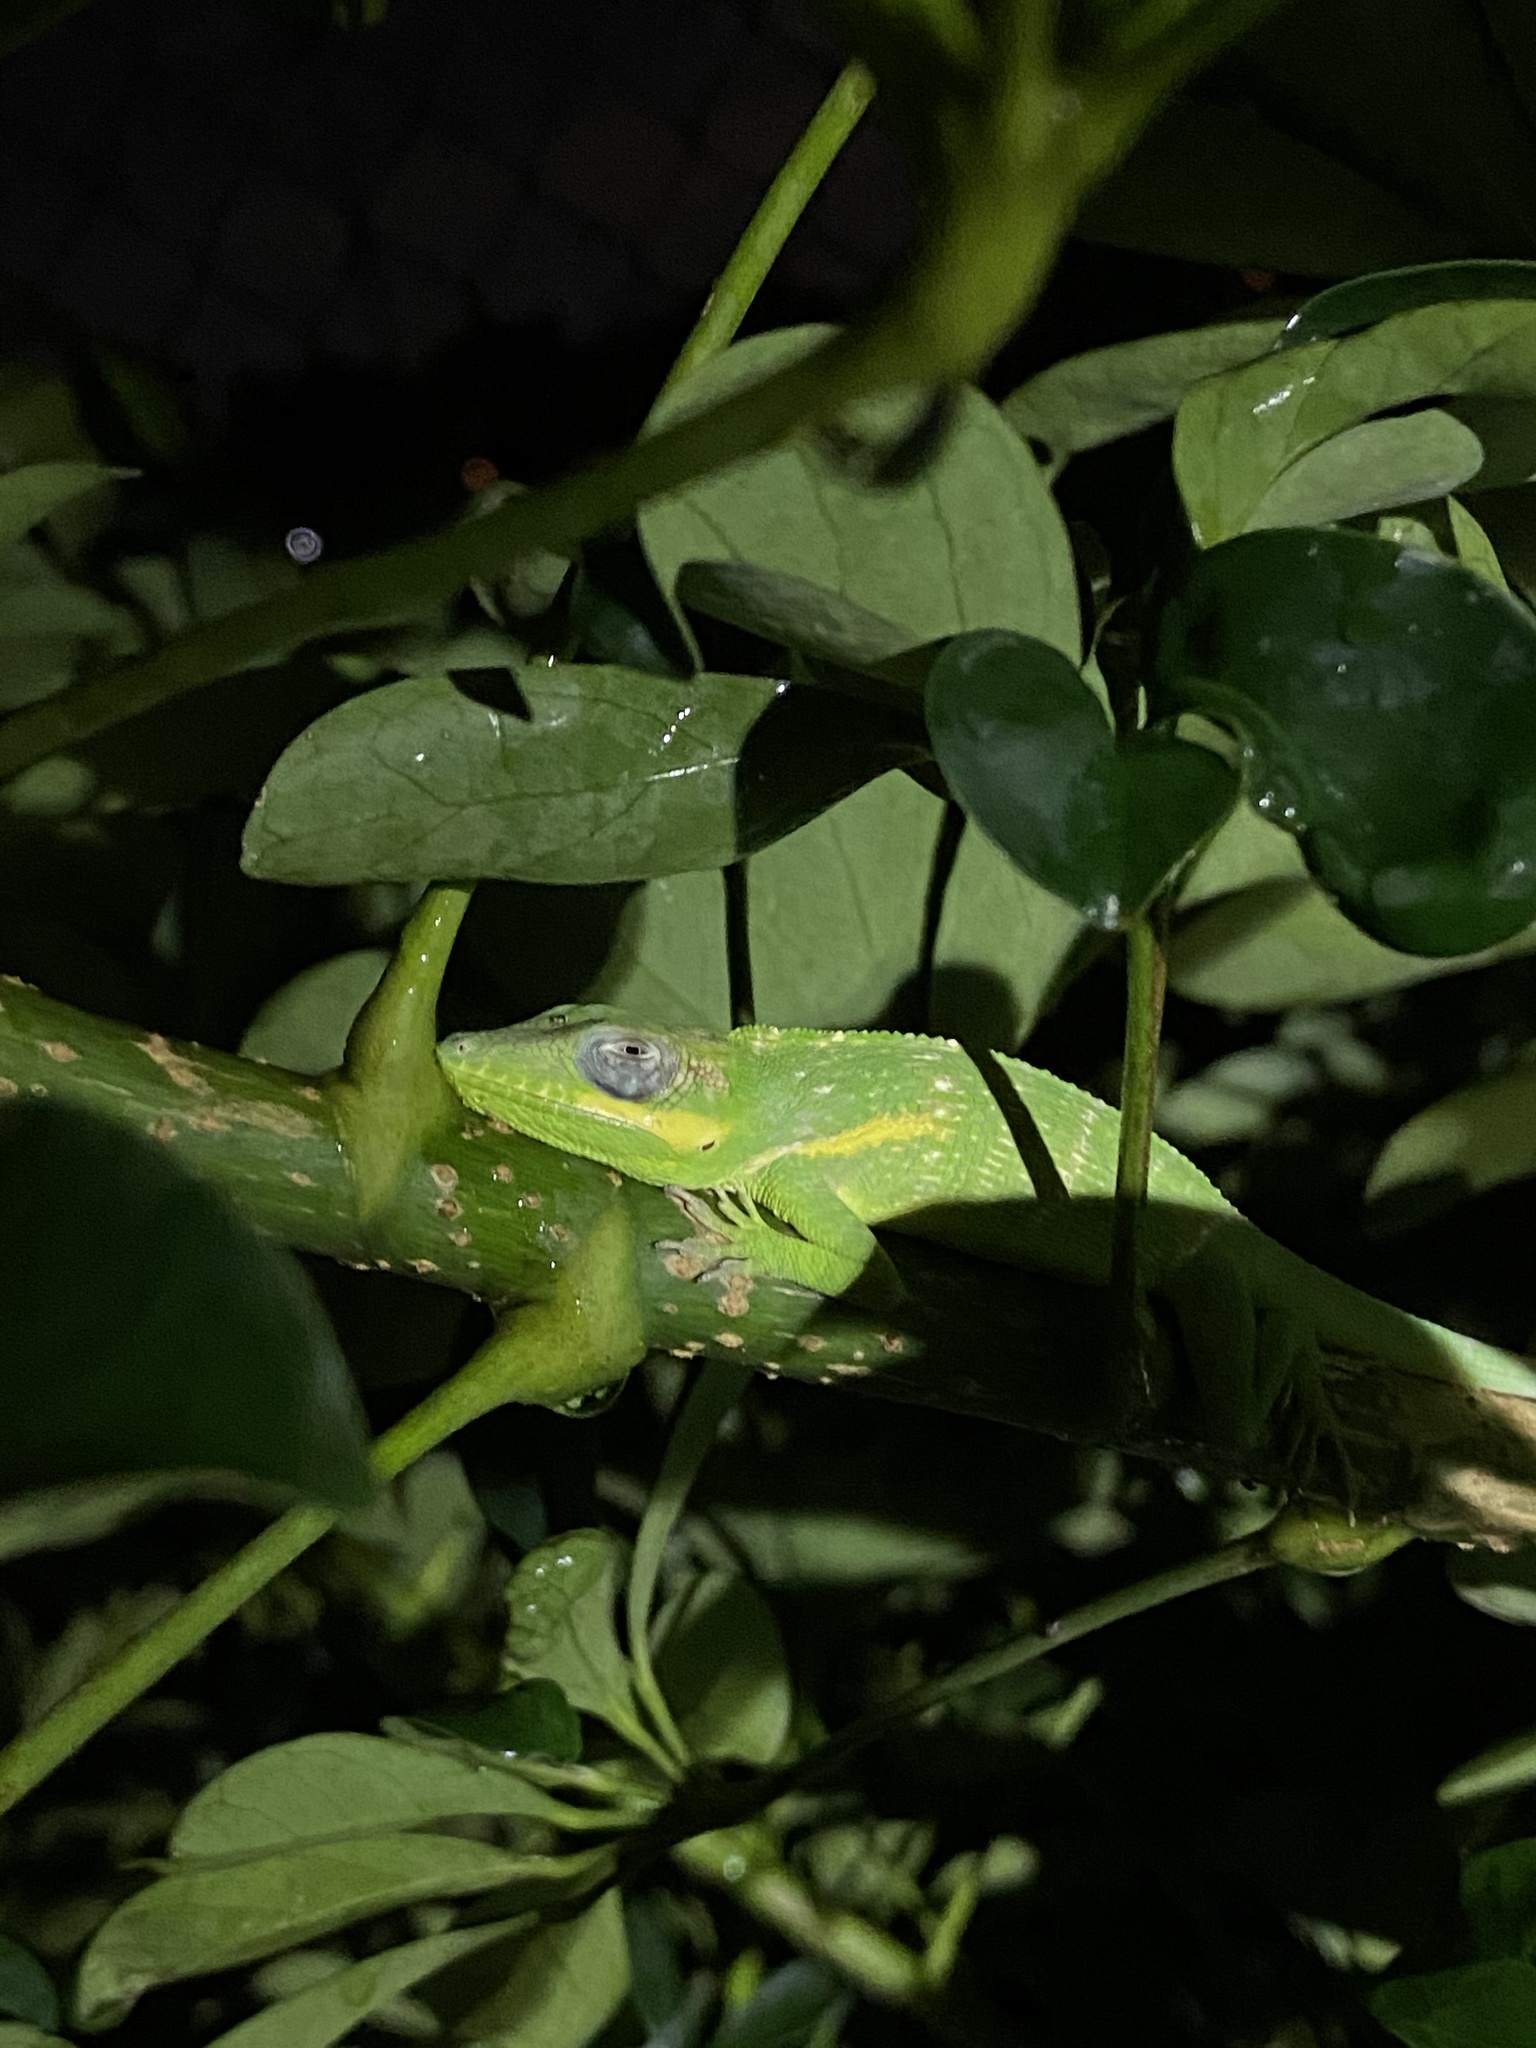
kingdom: Animalia
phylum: Chordata
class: Squamata
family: Dactyloidae
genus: Anolis
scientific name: Anolis equestris
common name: Knight anole
